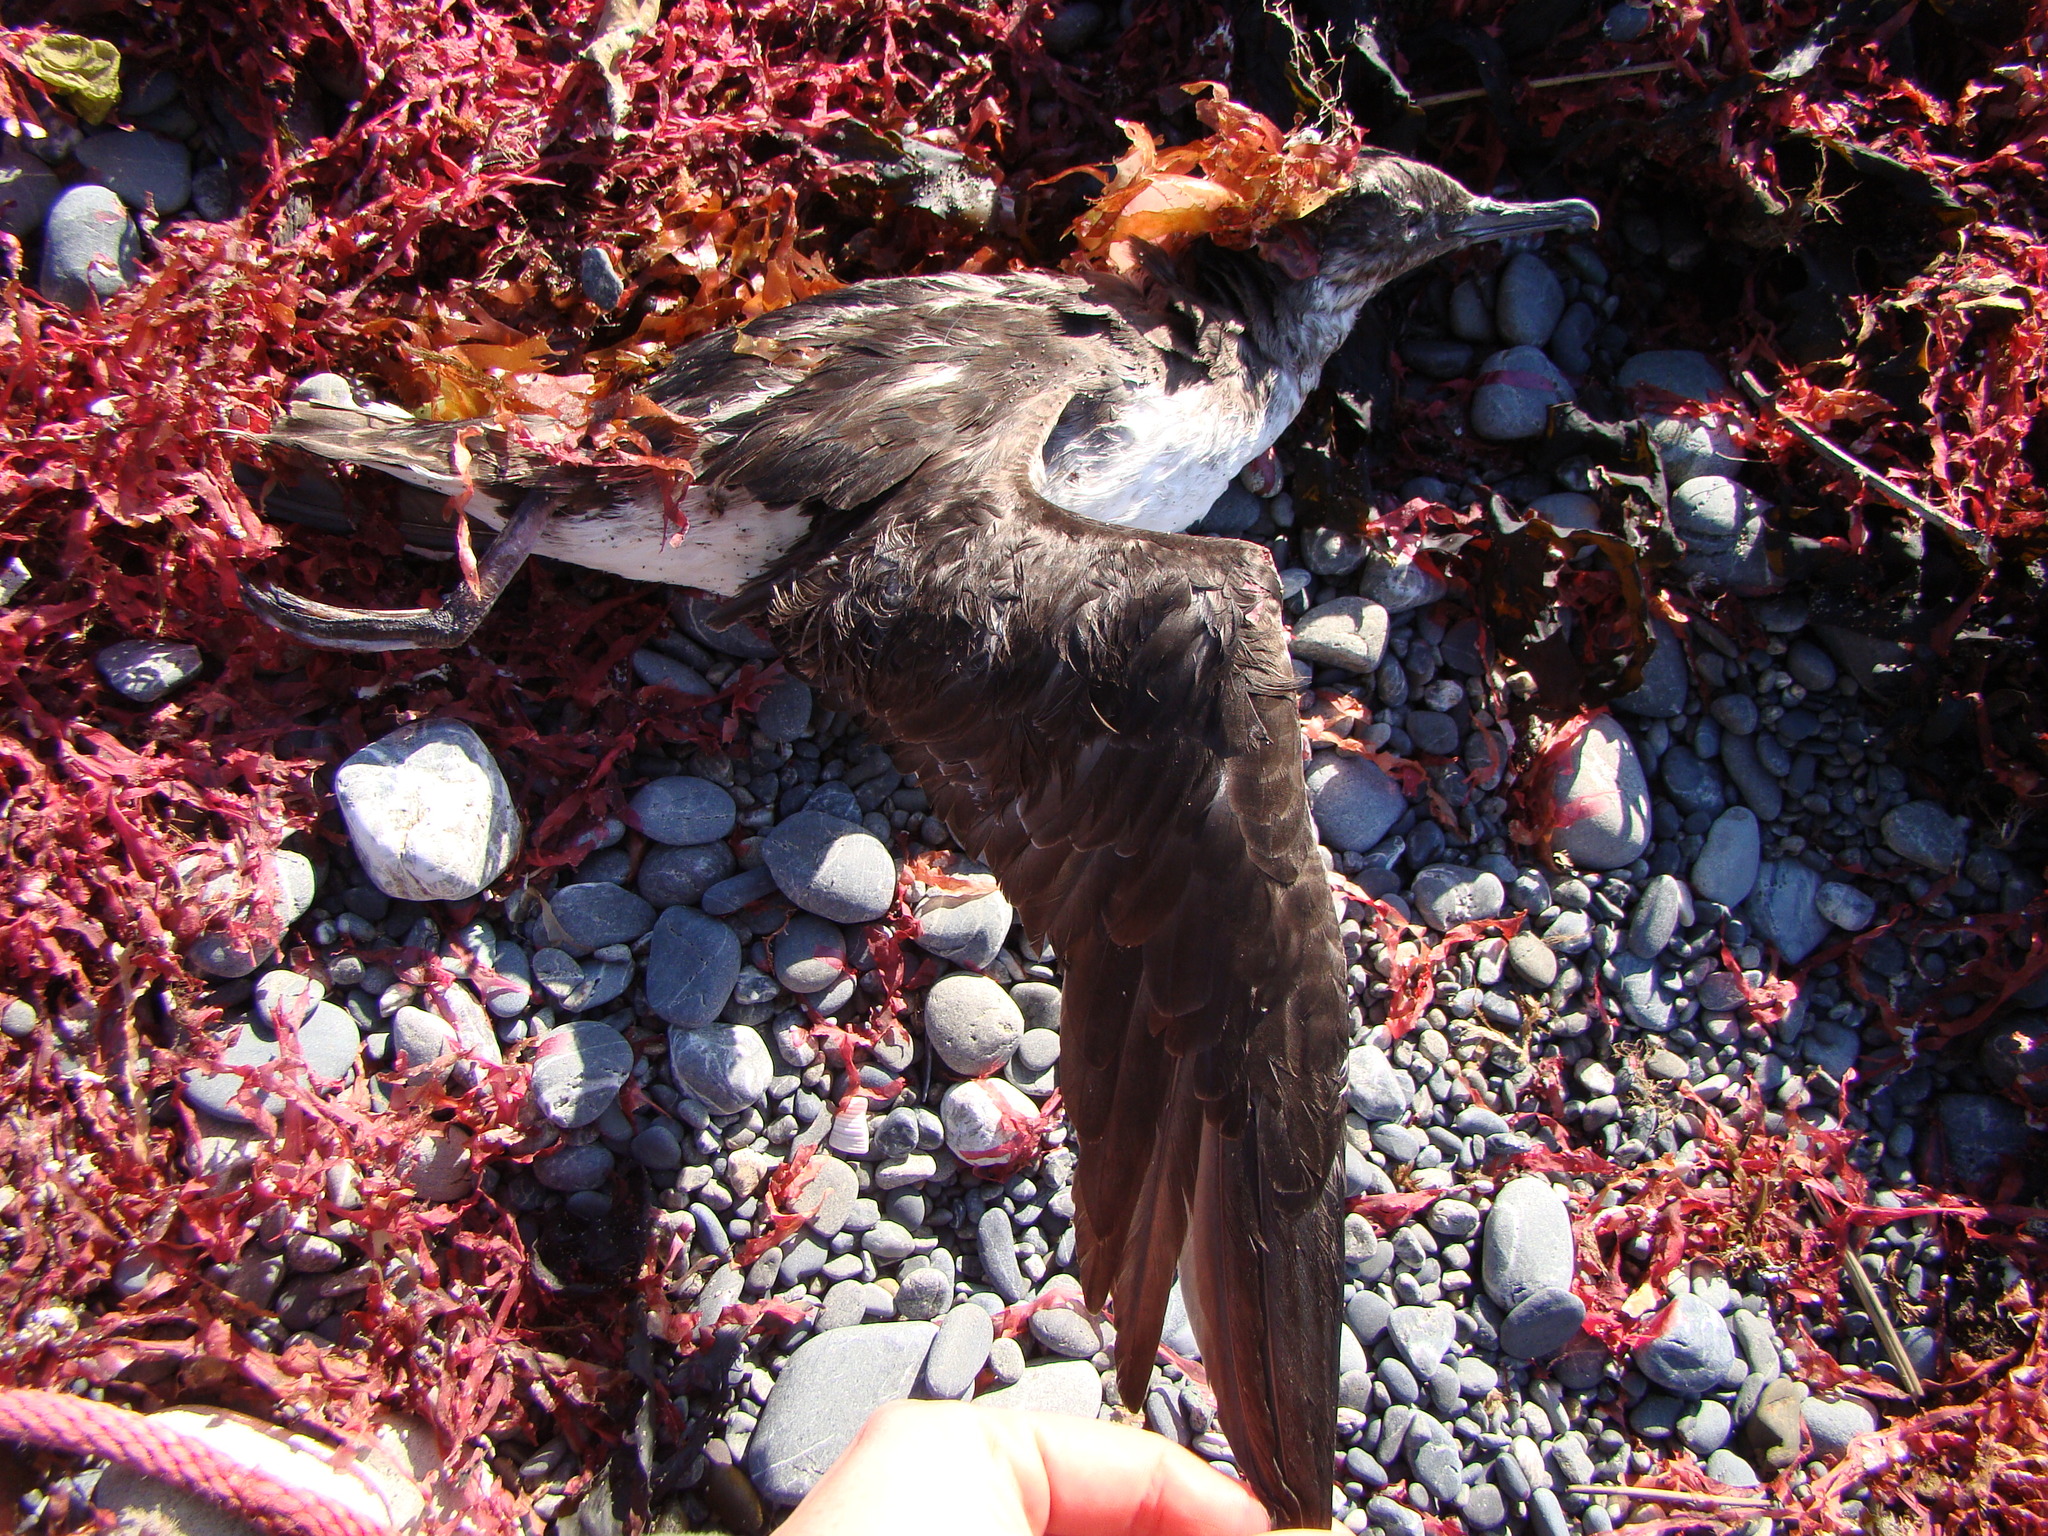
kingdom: Animalia
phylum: Chordata
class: Aves
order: Procellariiformes
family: Procellariidae
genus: Puffinus
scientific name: Puffinus gavia
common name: Fluttering shearwater
